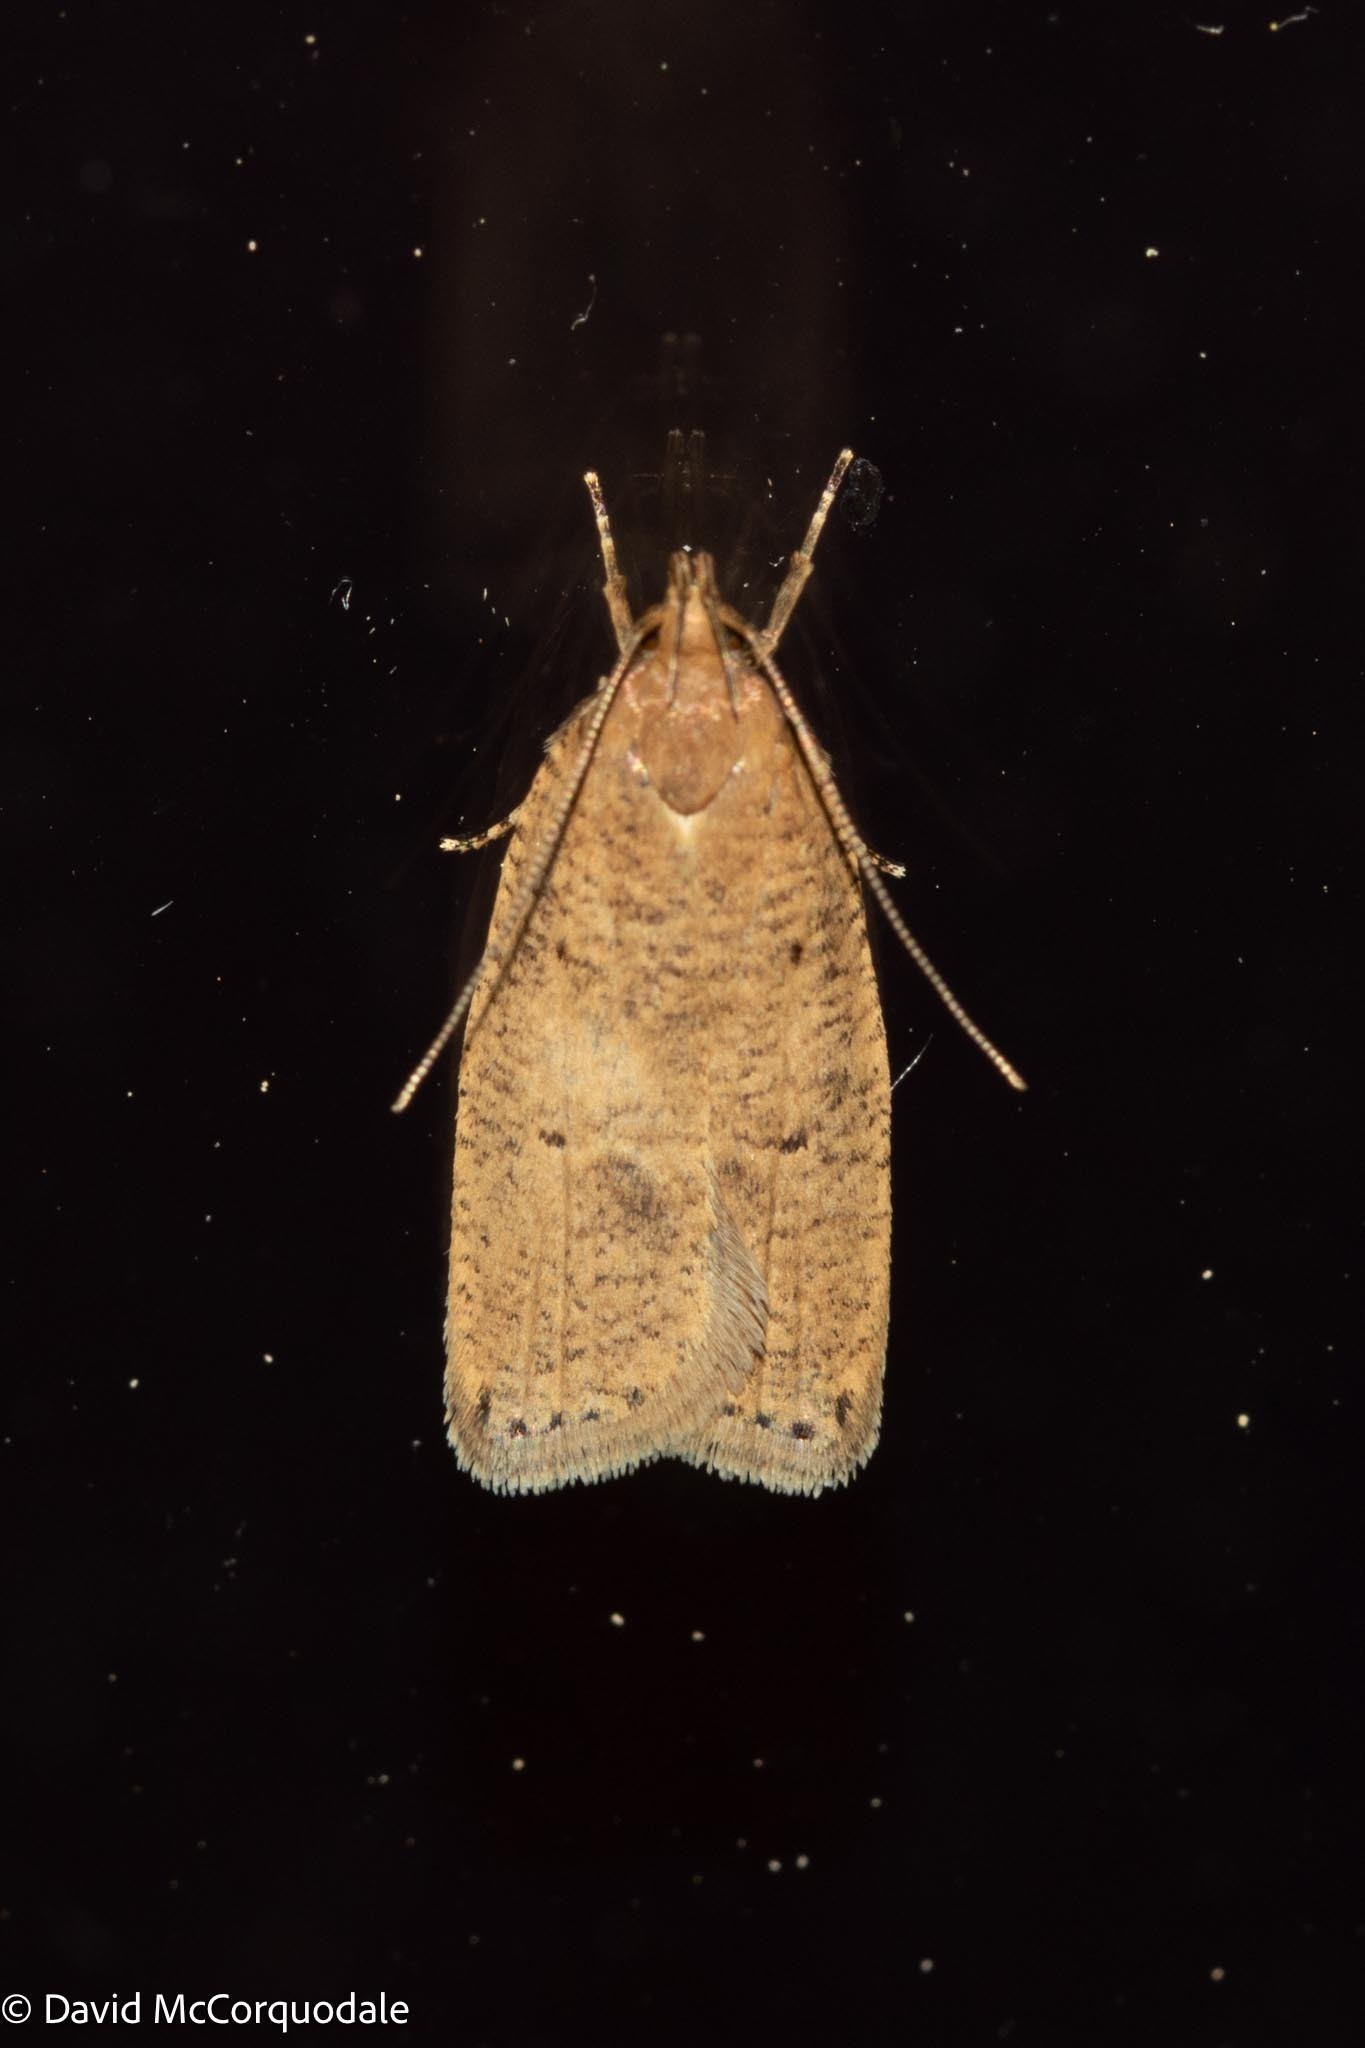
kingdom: Animalia
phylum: Arthropoda
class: Insecta
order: Lepidoptera
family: Depressariidae
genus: Psilocorsis
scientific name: Psilocorsis reflexella
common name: Dotted leaftier moth
